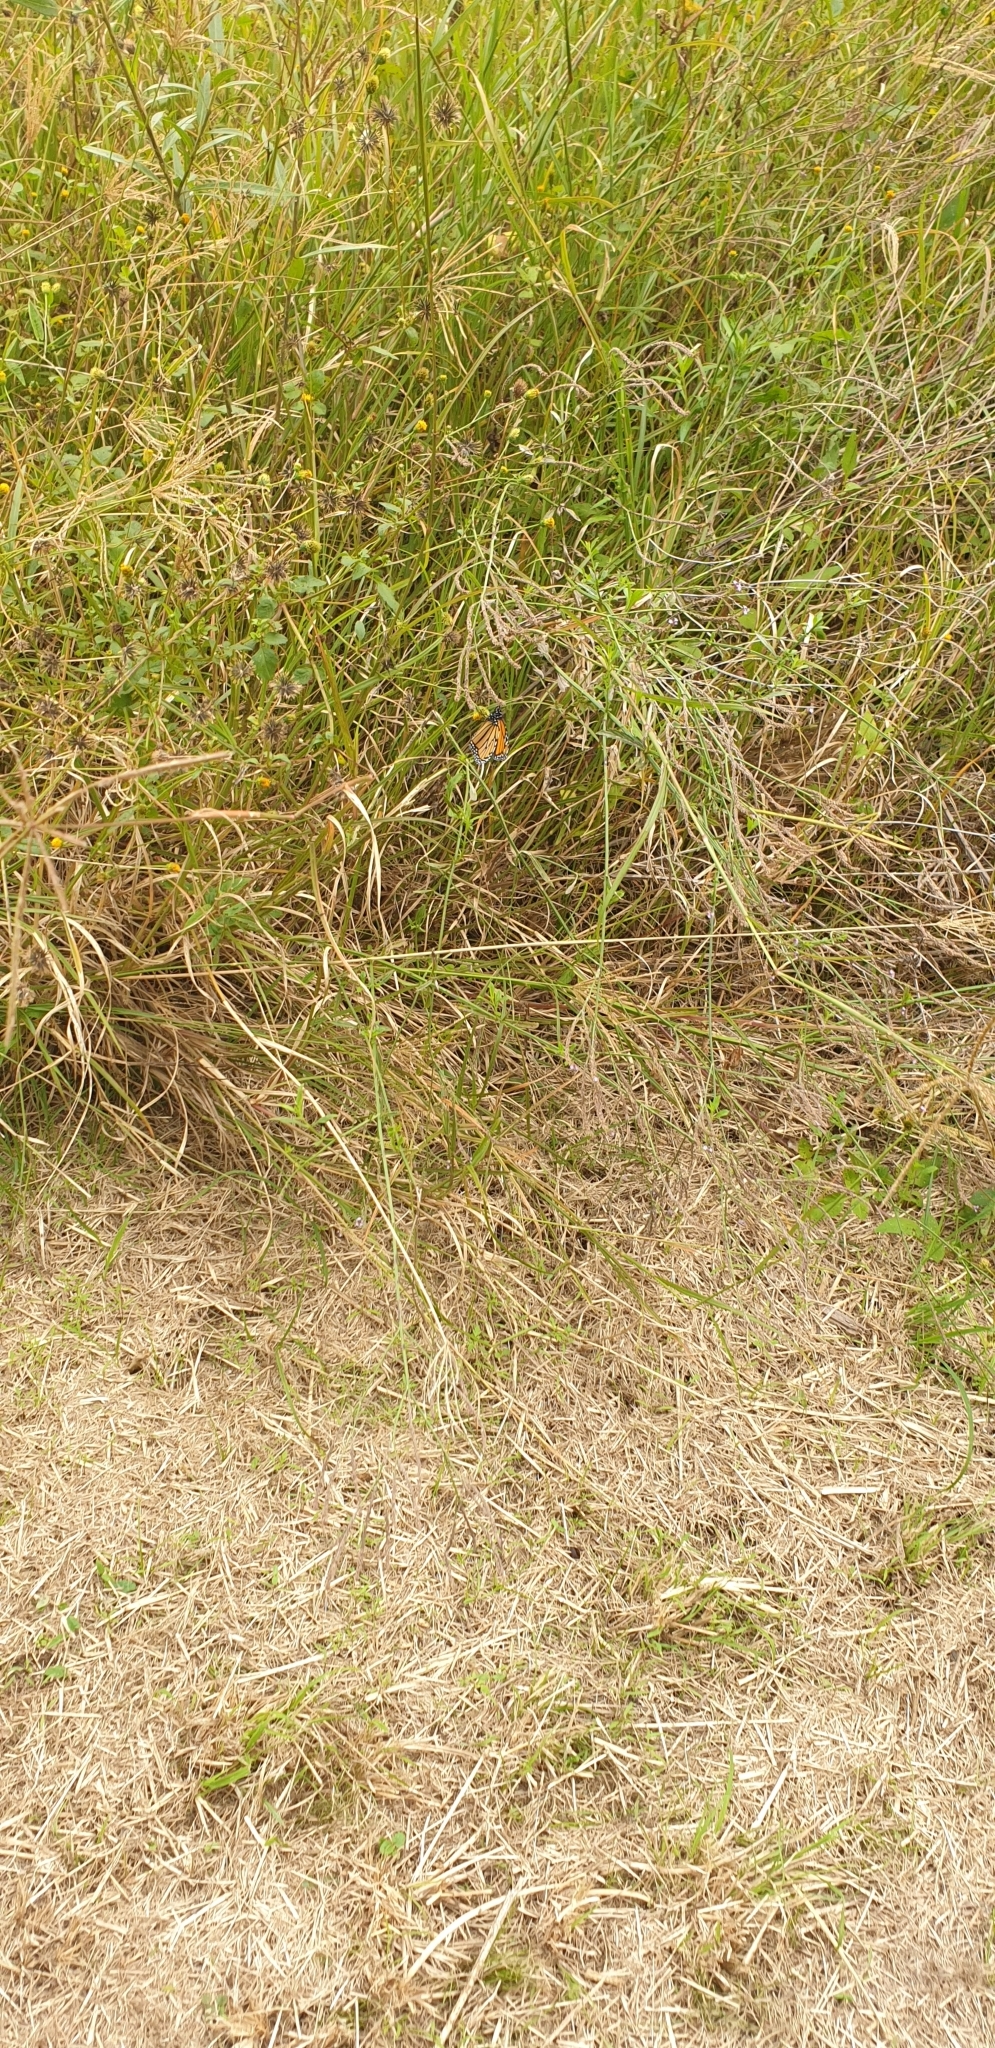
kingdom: Animalia
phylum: Arthropoda
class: Insecta
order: Lepidoptera
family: Nymphalidae
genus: Danaus
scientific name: Danaus plexippus
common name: Monarch
